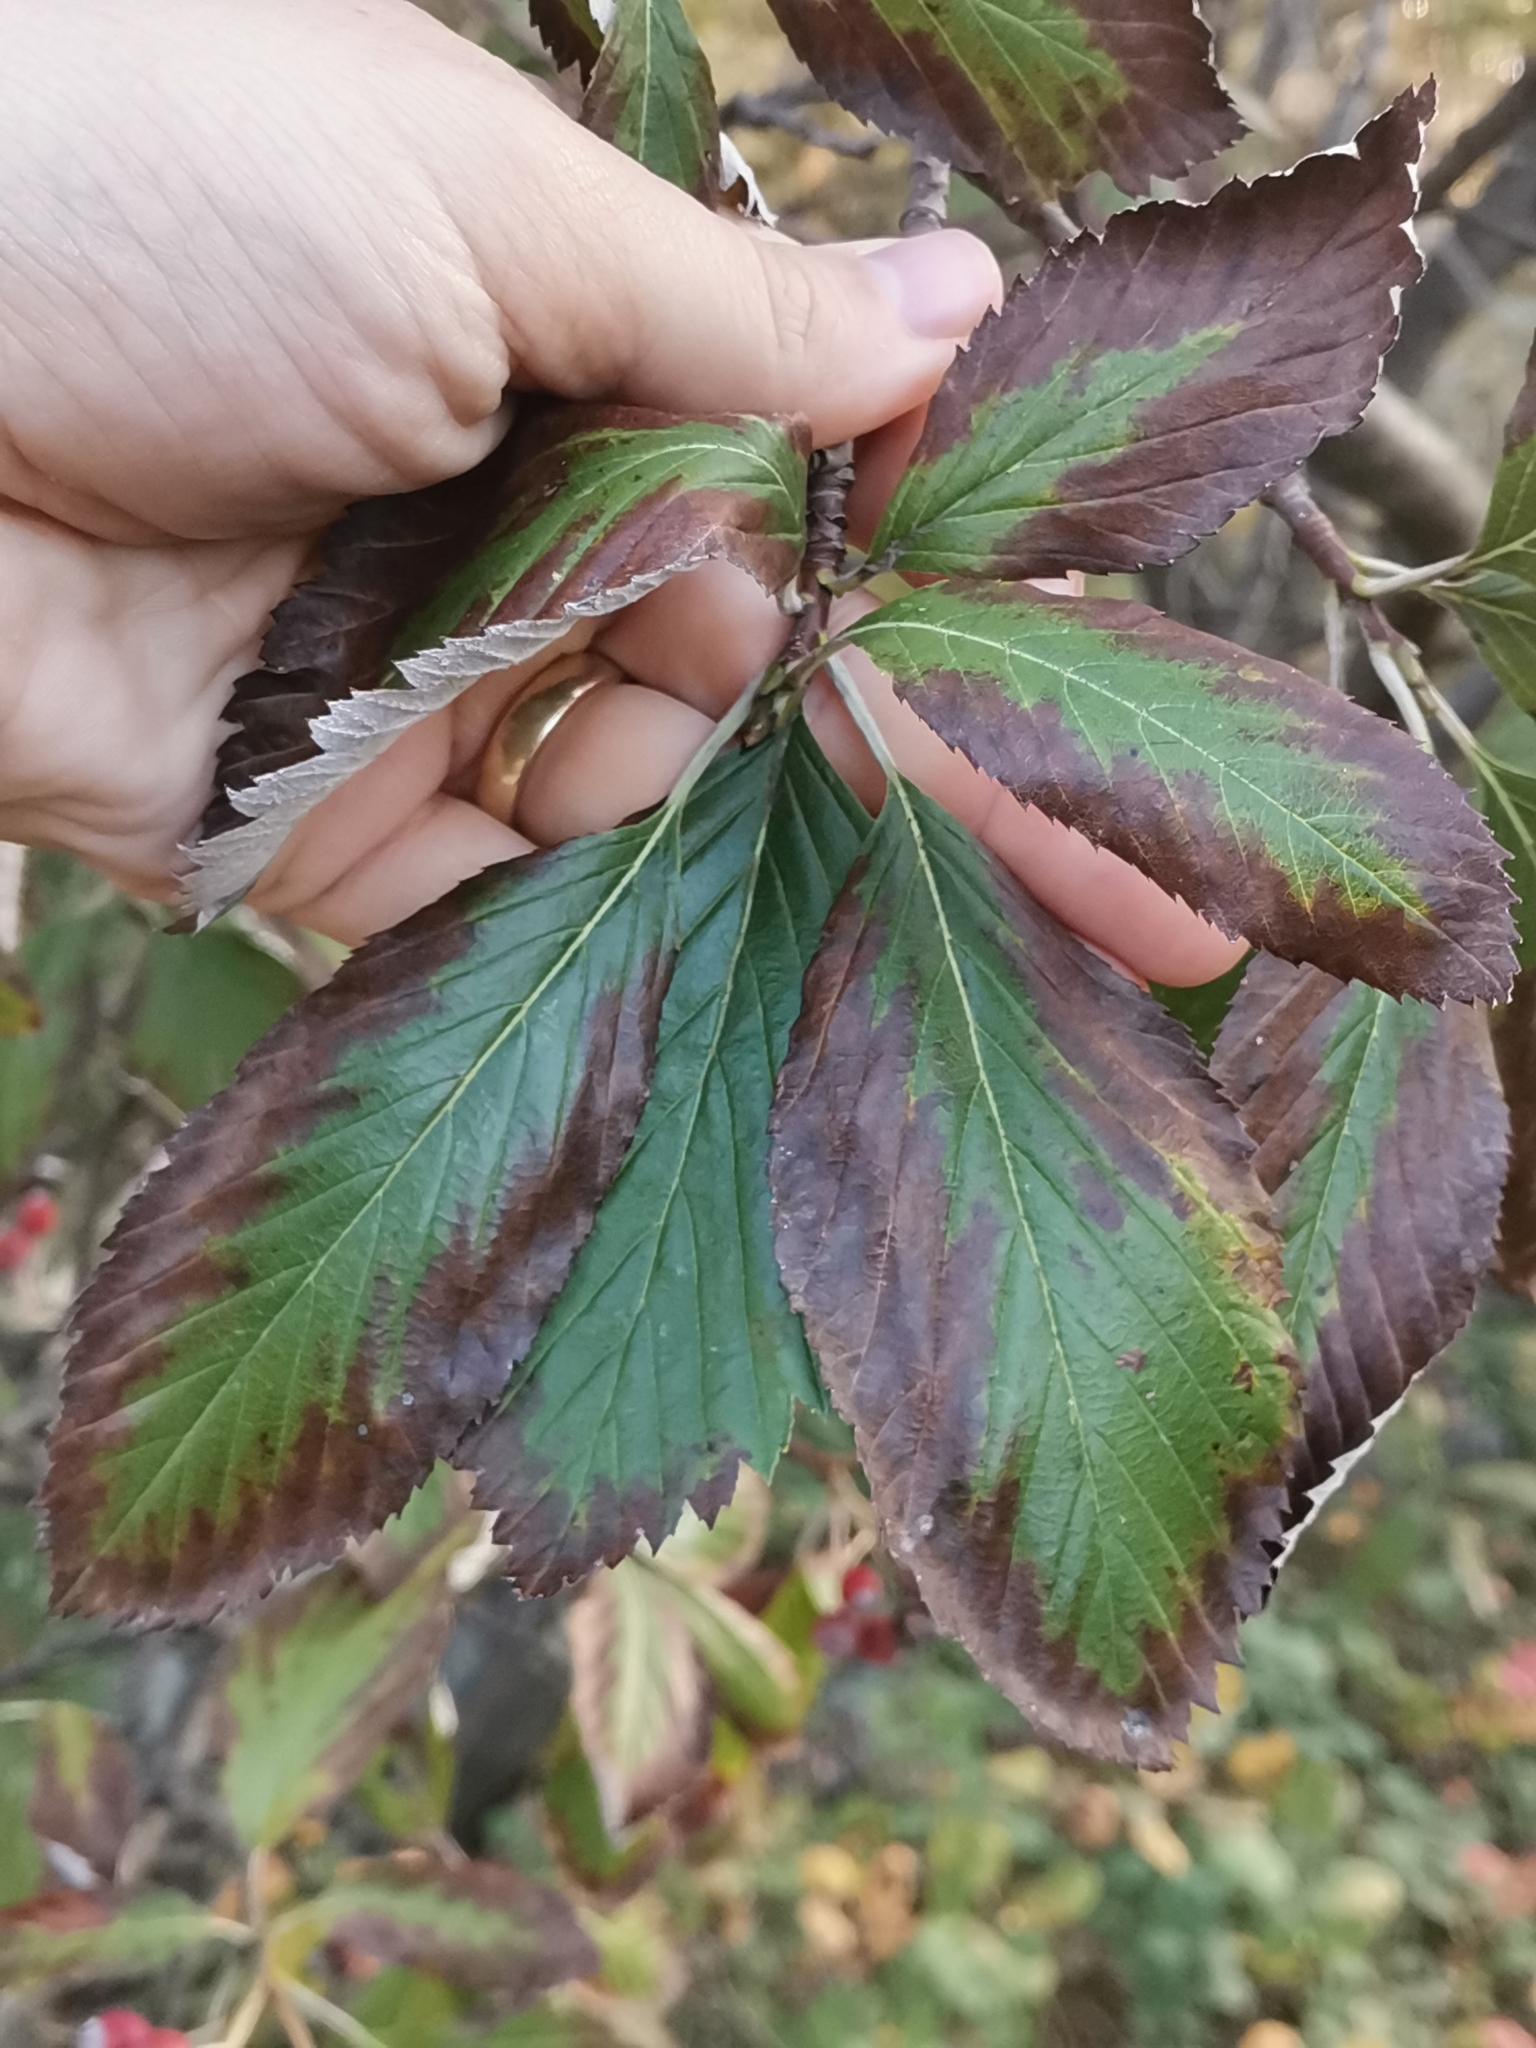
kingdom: Plantae
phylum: Tracheophyta
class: Magnoliopsida
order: Rosales
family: Rosaceae
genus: Aria
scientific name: Aria graeca
